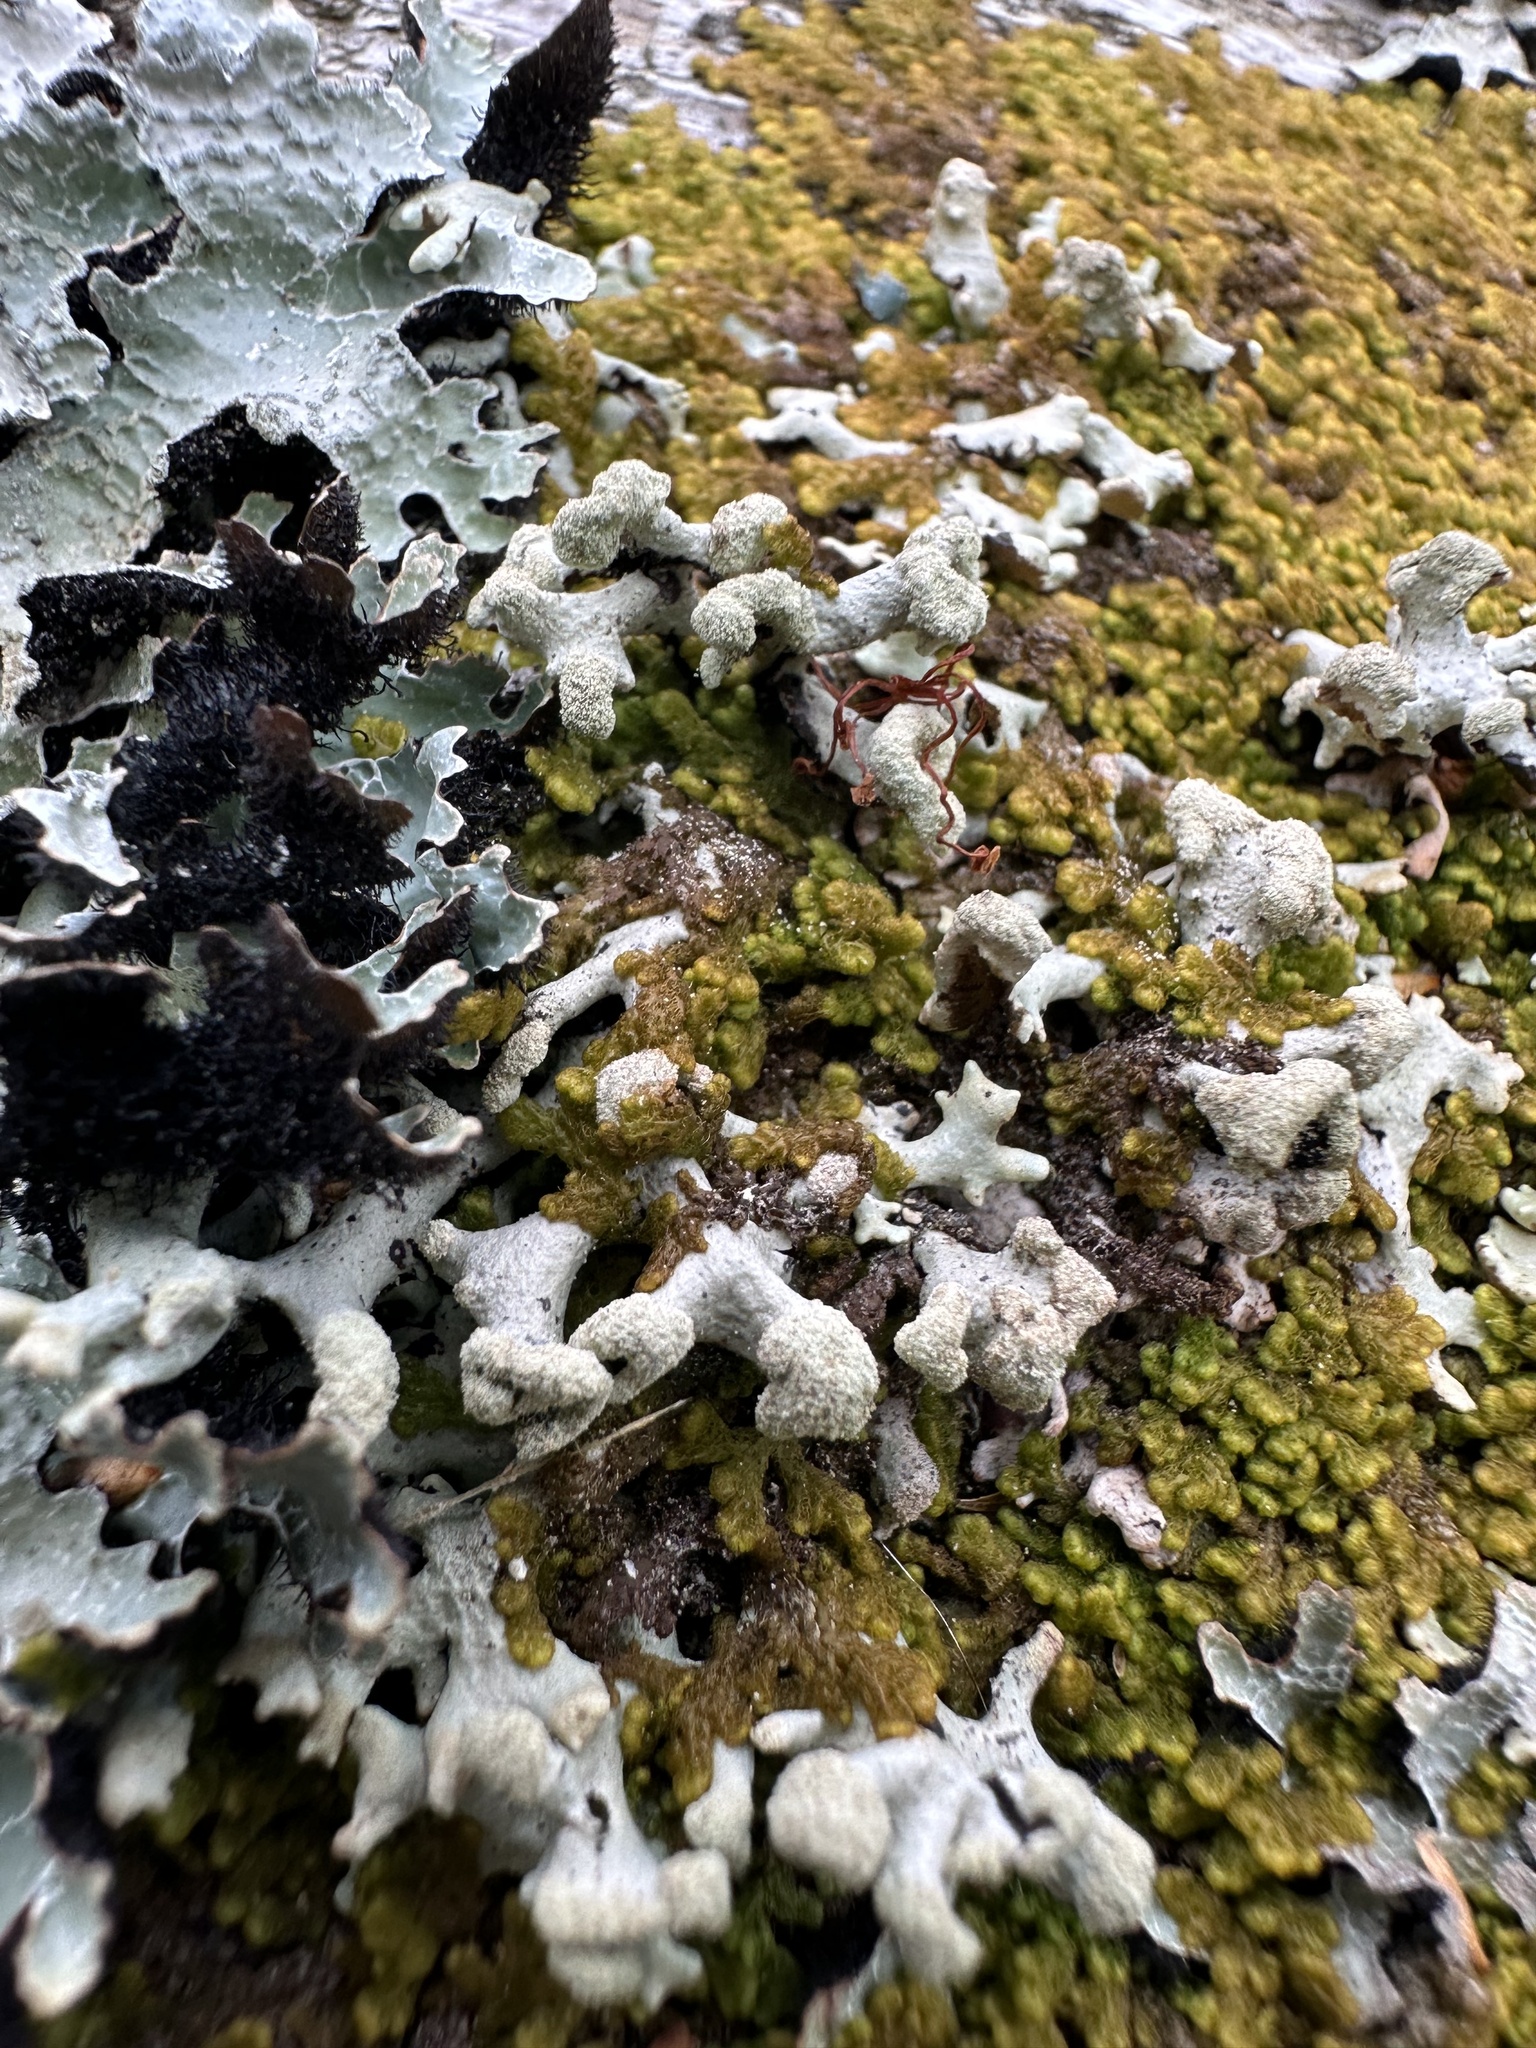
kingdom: Fungi
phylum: Ascomycota
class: Lecanoromycetes
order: Lecanorales
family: Parmeliaceae
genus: Hypogymnia
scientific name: Hypogymnia tubulosa
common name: Powder-headed tube lichen
